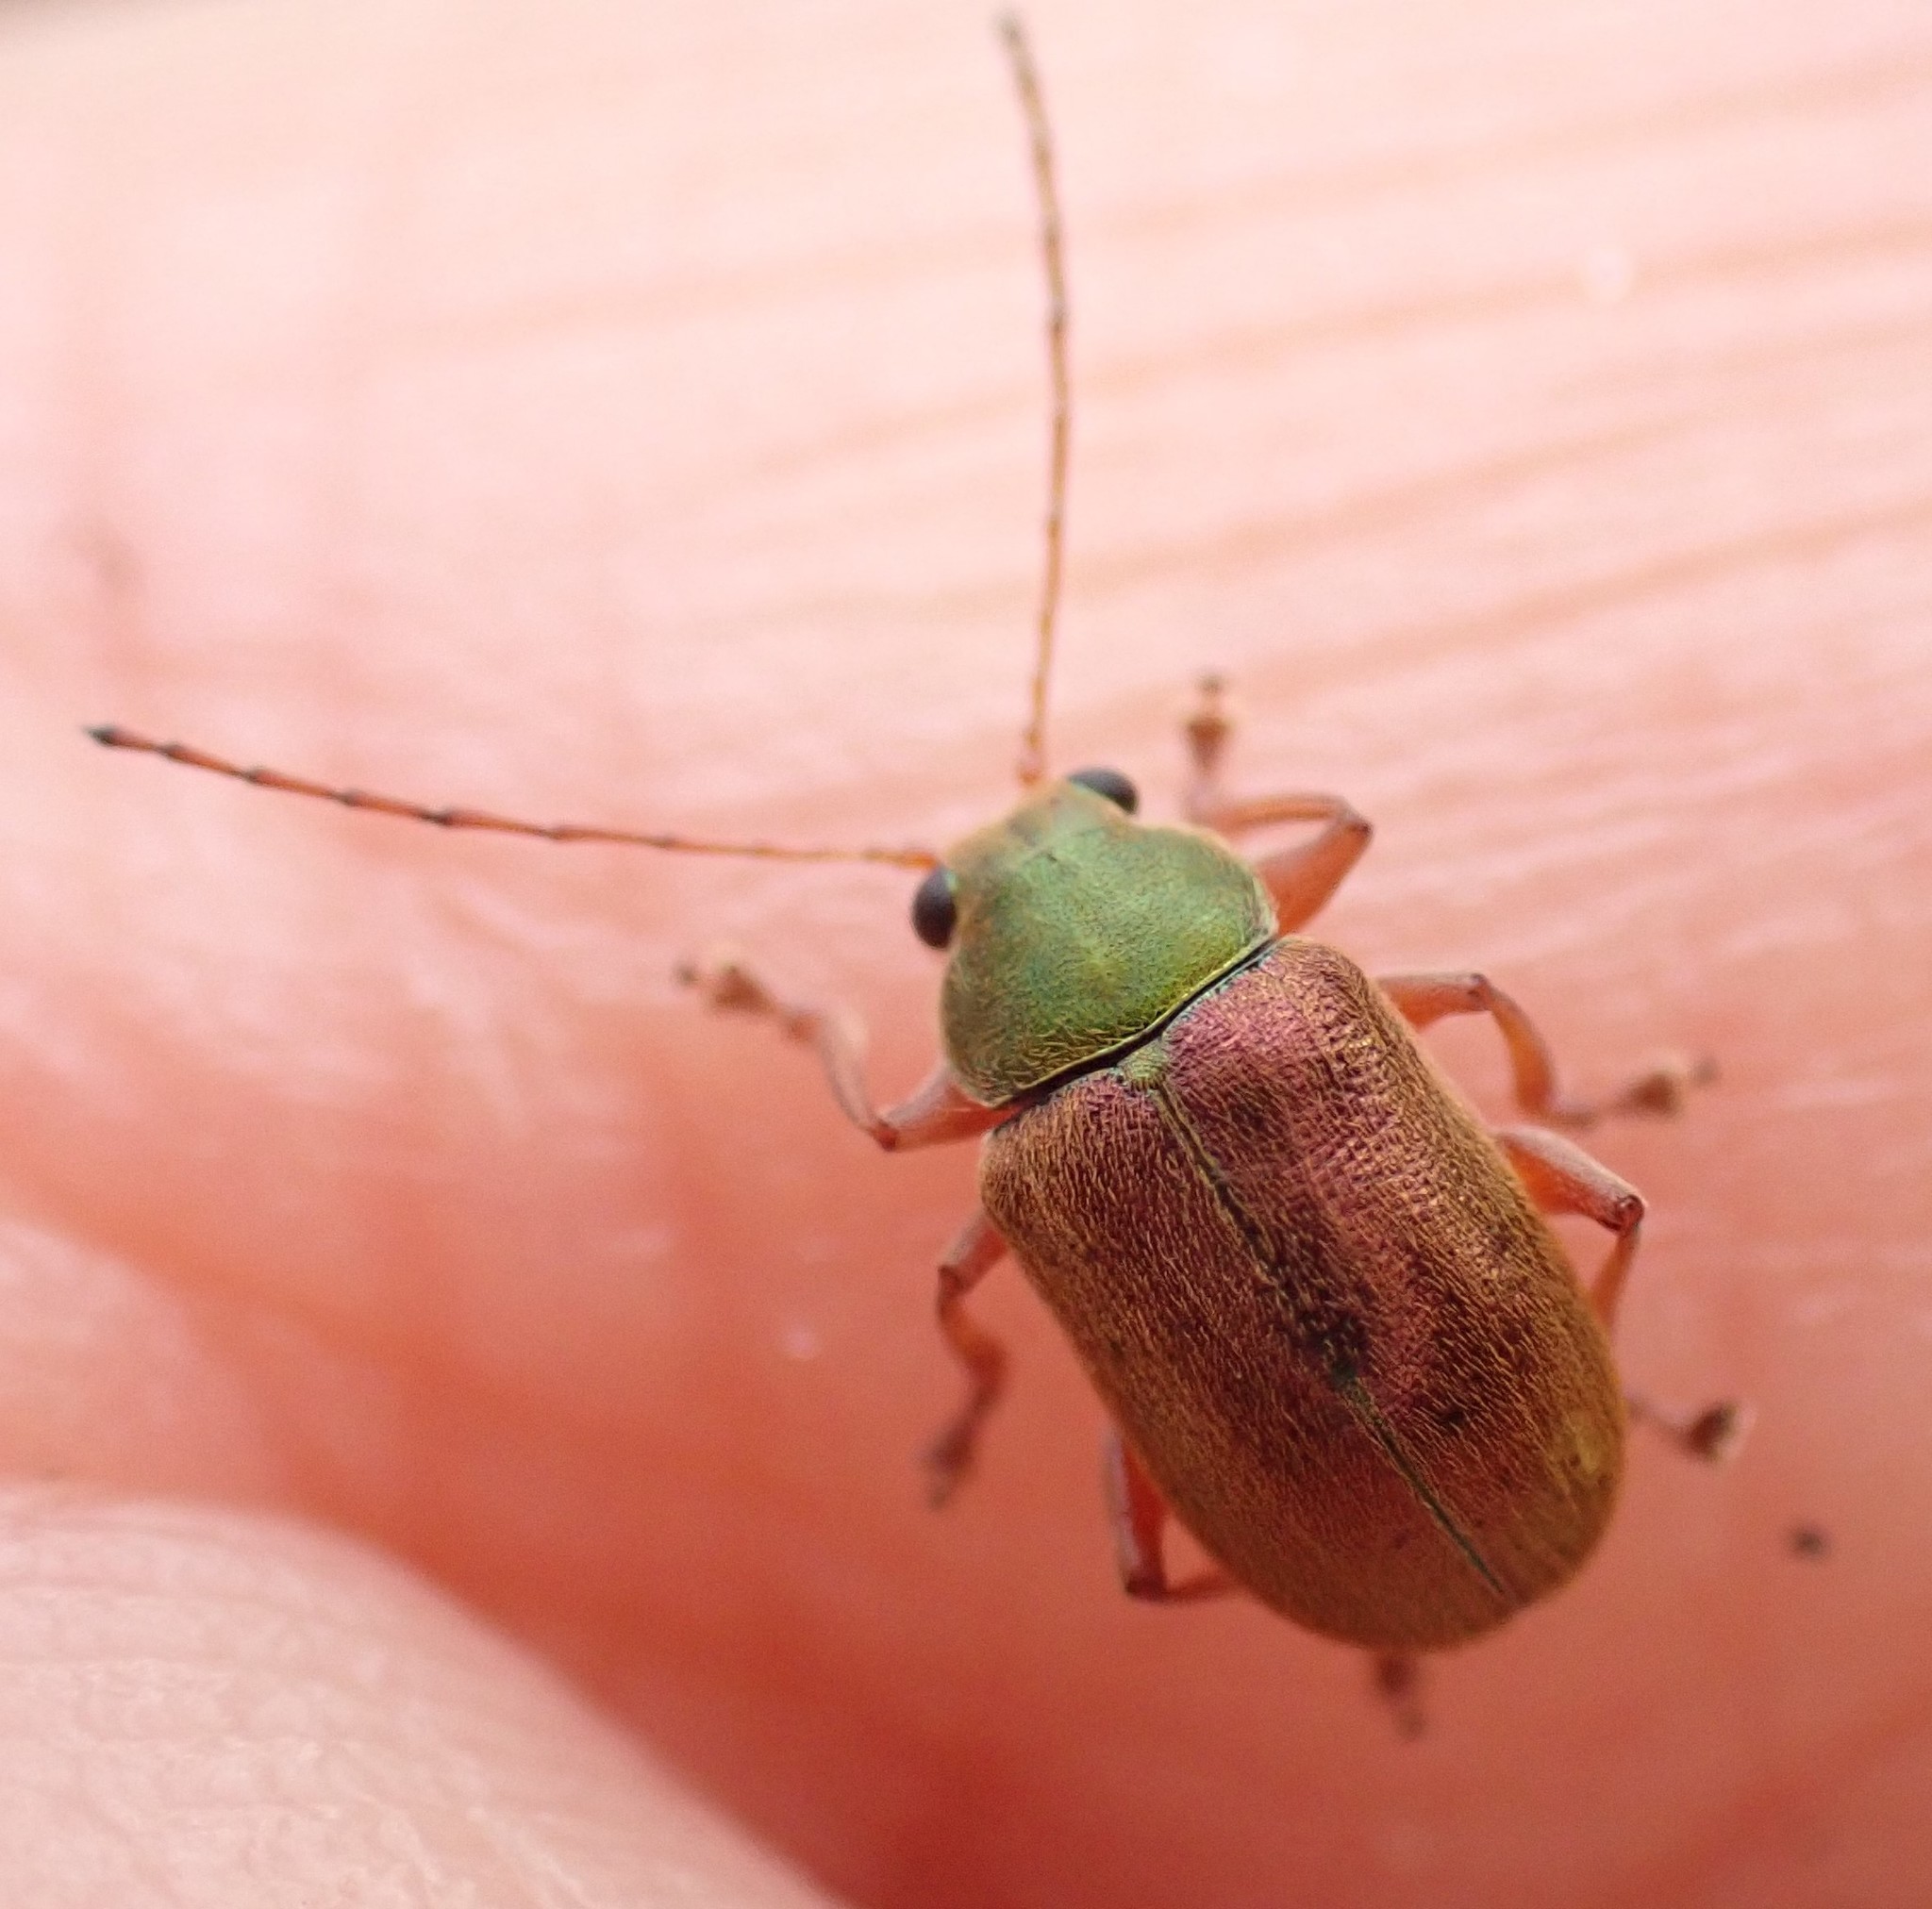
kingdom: Animalia
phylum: Arthropoda
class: Insecta
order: Coleoptera
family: Chrysomelidae
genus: Edusella
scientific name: Edusella
